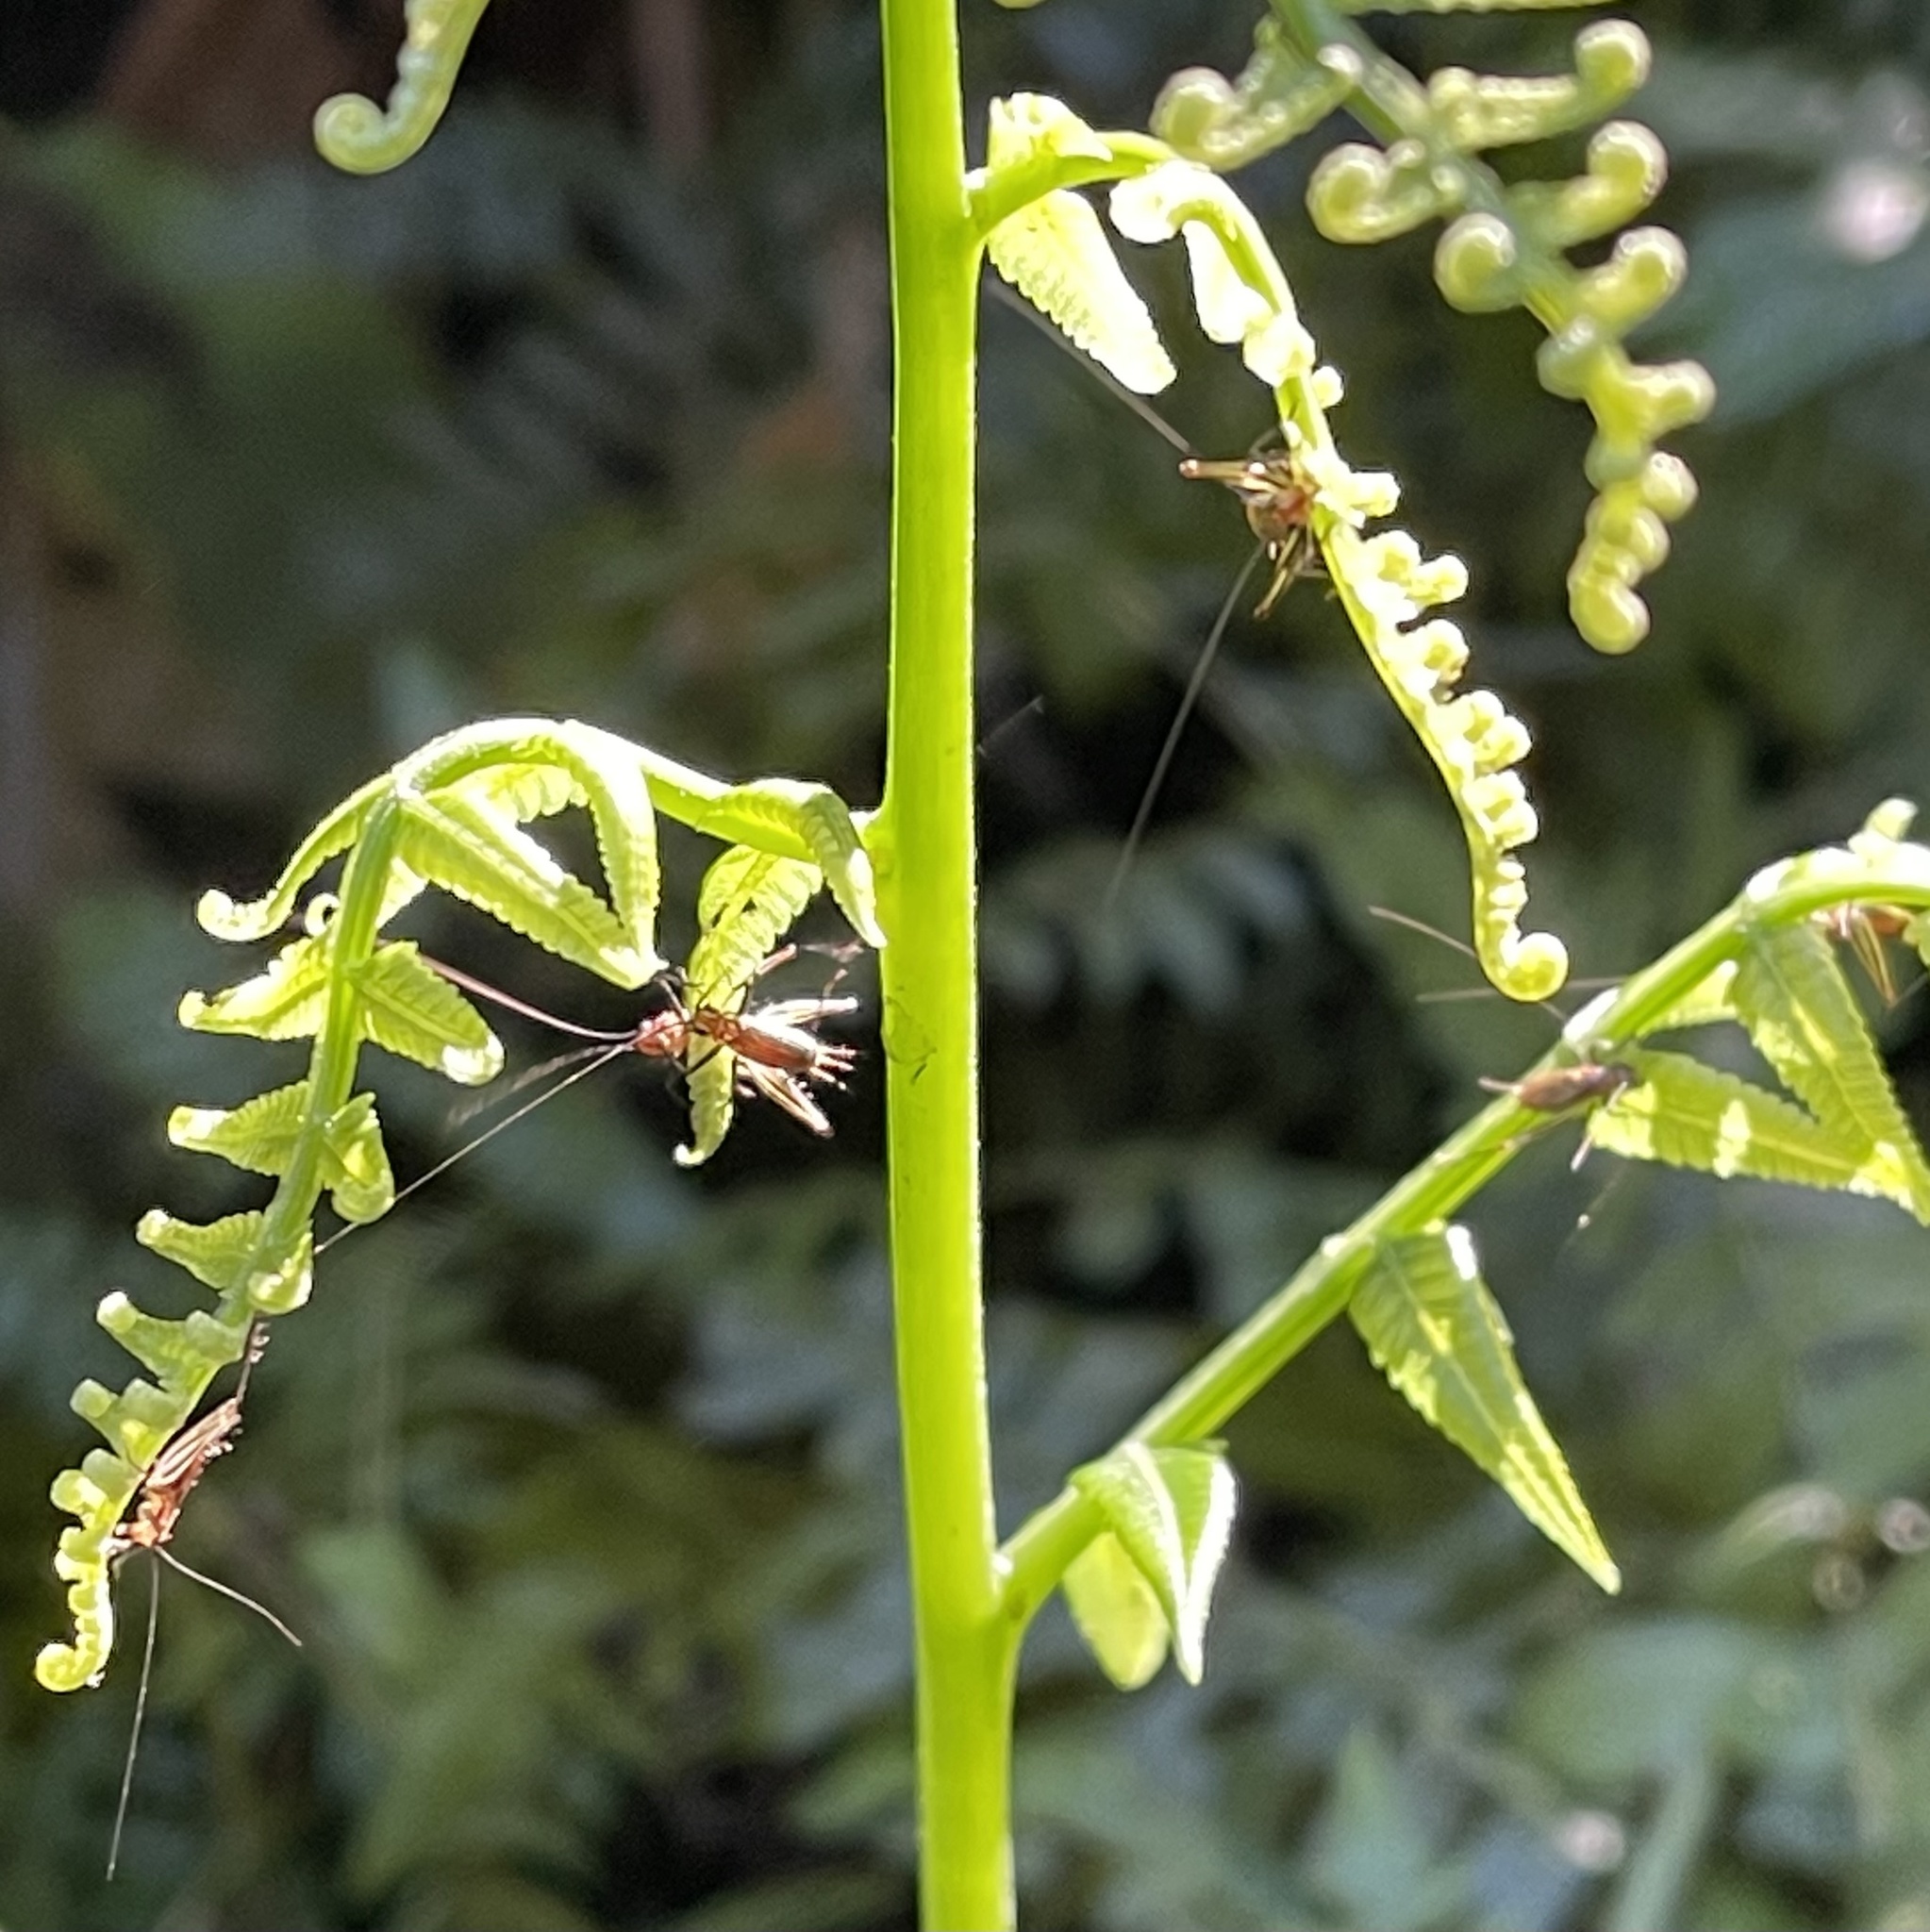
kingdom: Animalia
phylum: Arthropoda
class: Insecta
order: Orthoptera
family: Trigonidiidae
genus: Nanixipha
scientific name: Nanixipha nahoa
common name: Truncated true katydid
